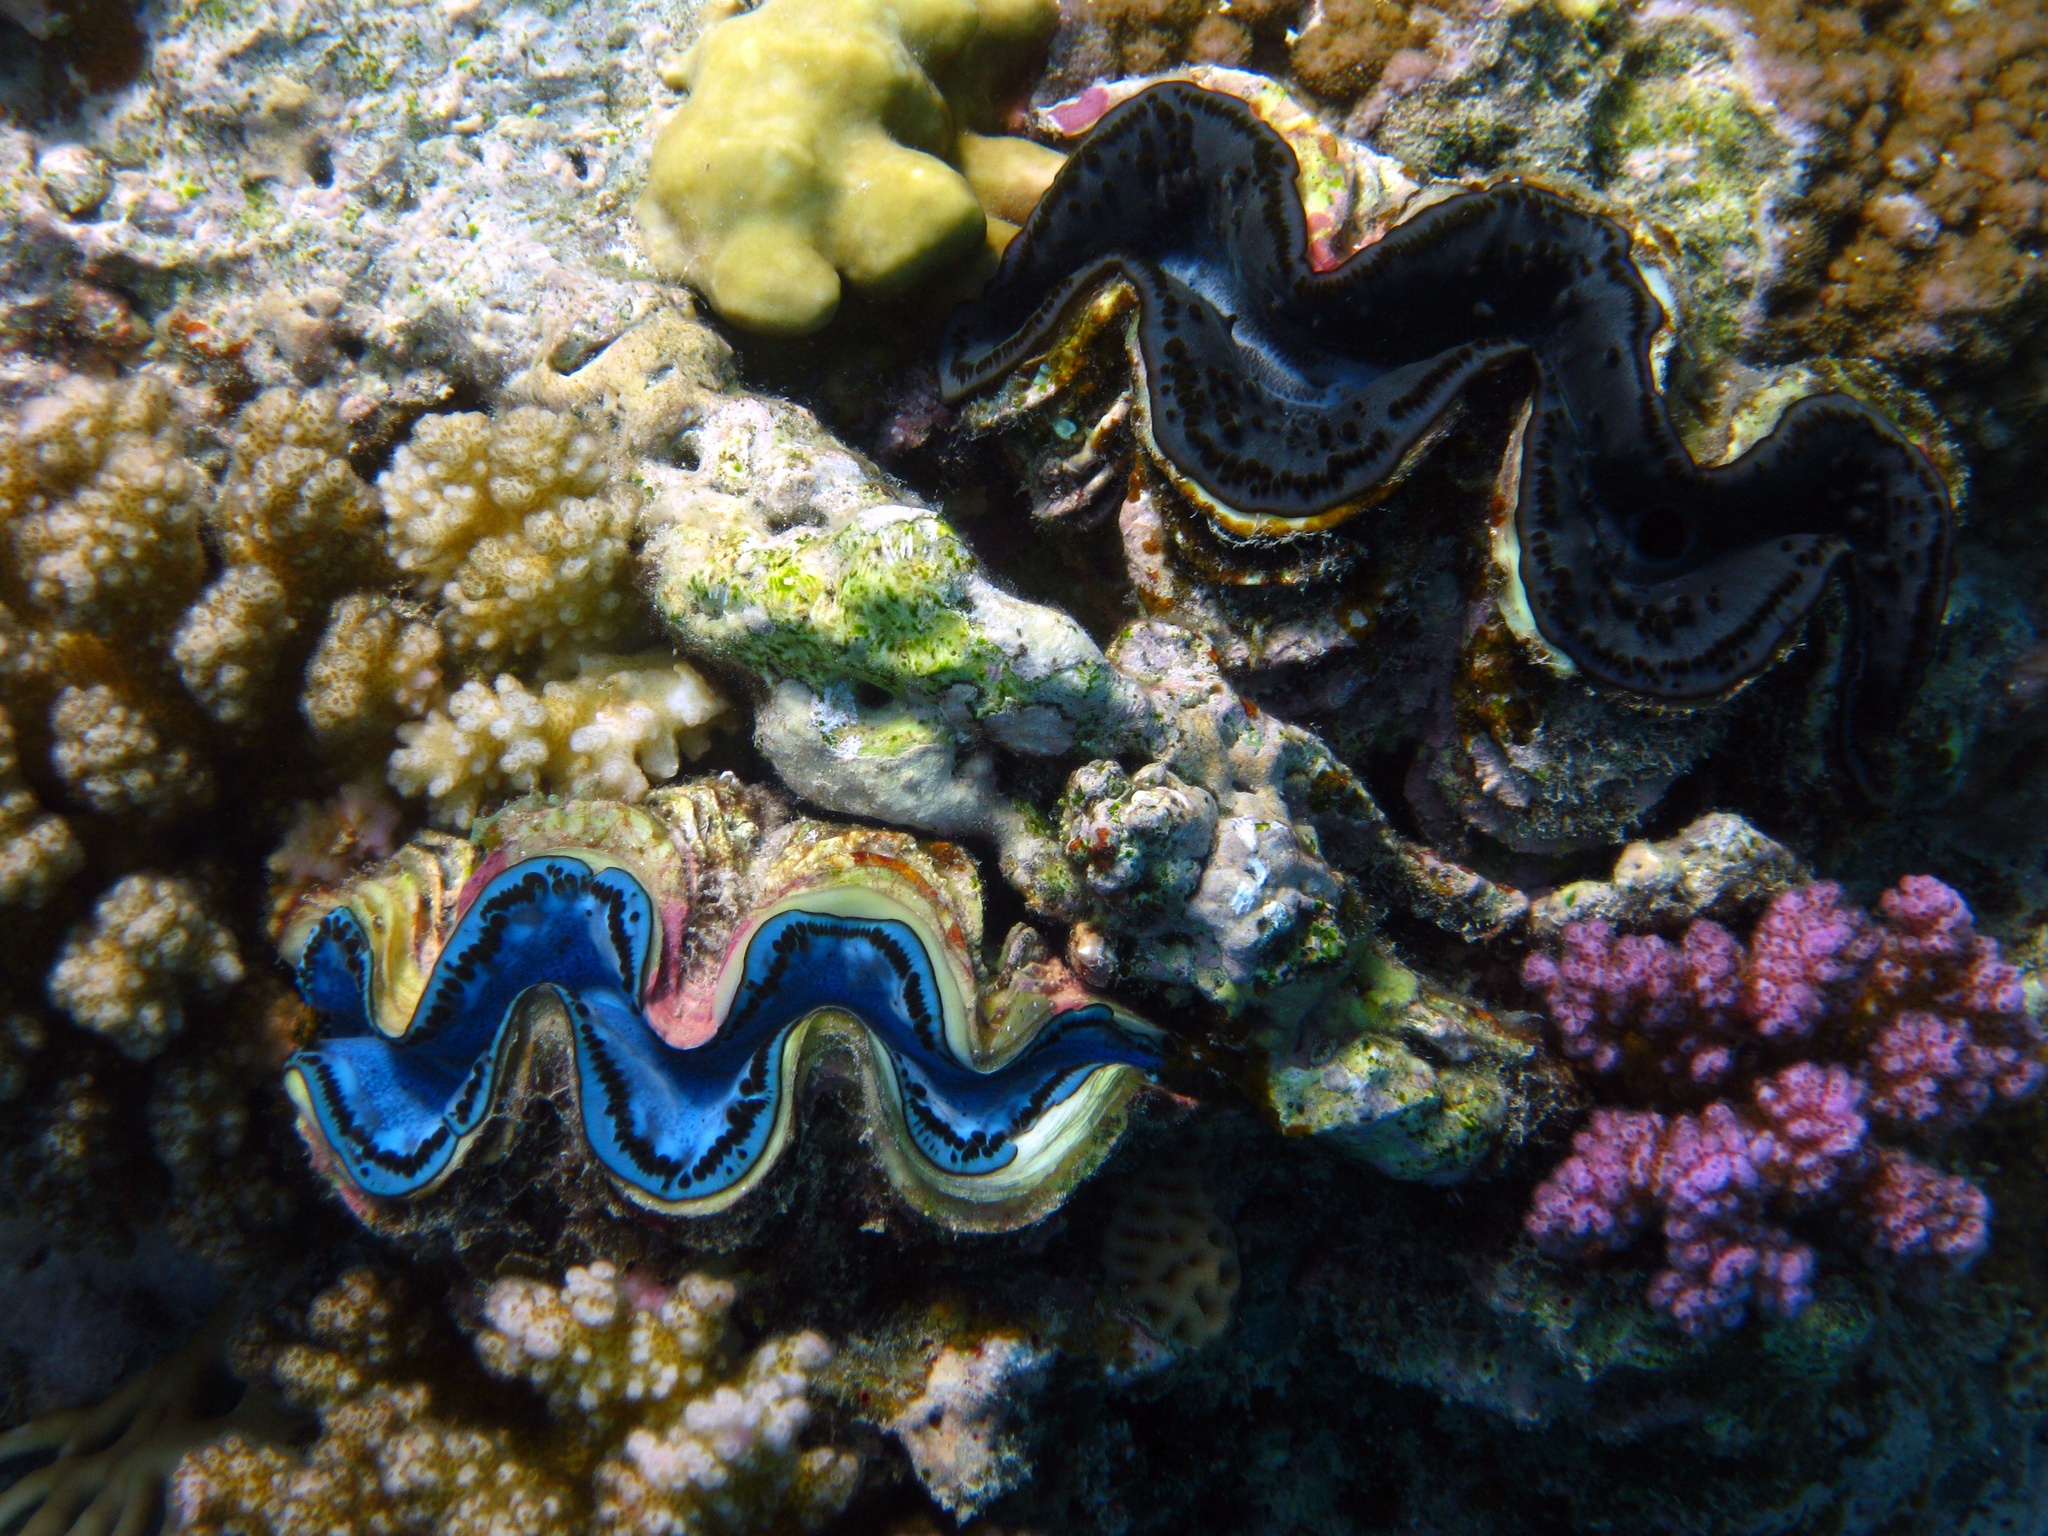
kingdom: Animalia
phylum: Mollusca
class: Bivalvia
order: Cardiida
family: Cardiidae
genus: Tridacna
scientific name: Tridacna maxima
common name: Small giant clam
